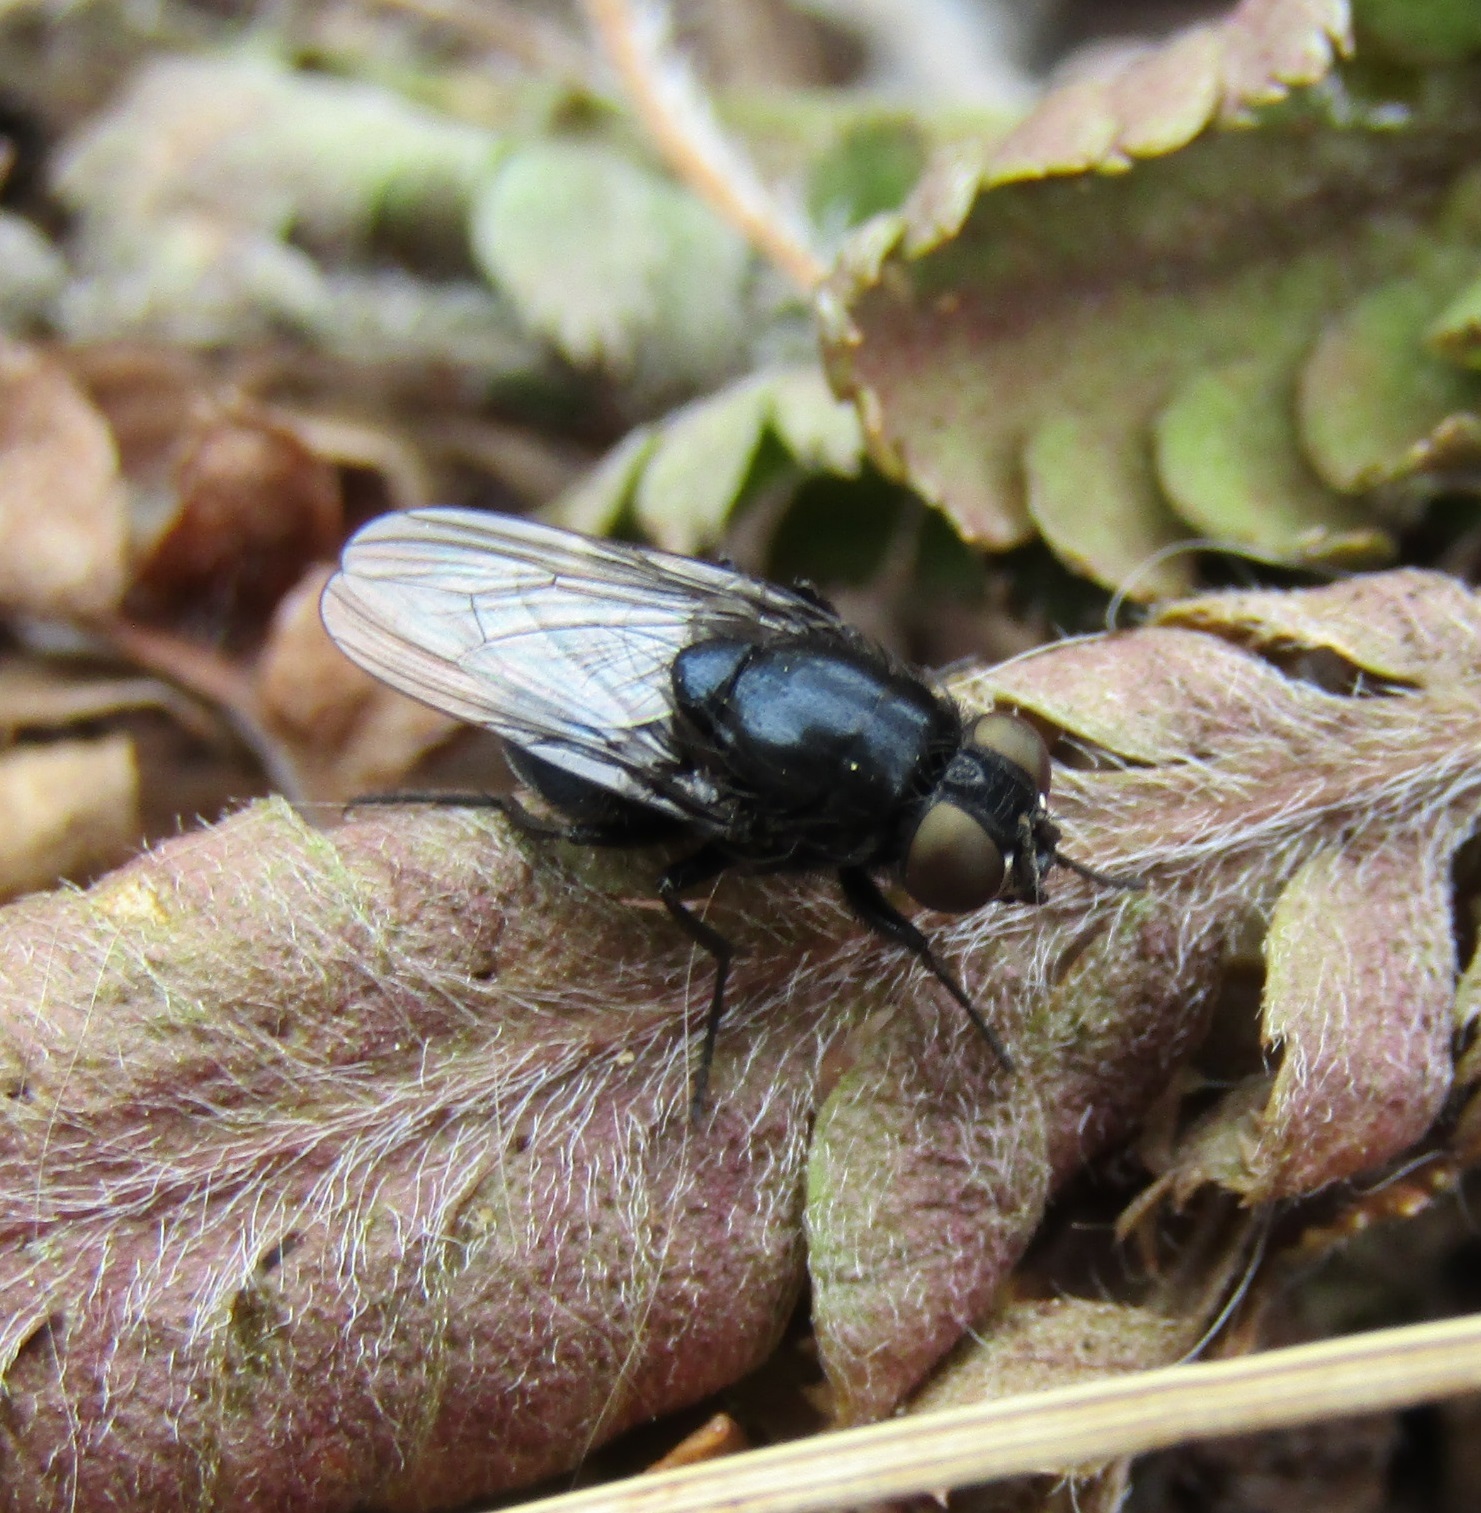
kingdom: Animalia
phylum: Arthropoda
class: Insecta
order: Diptera
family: Muscidae
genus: Australophyra
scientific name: Australophyra rostrata
